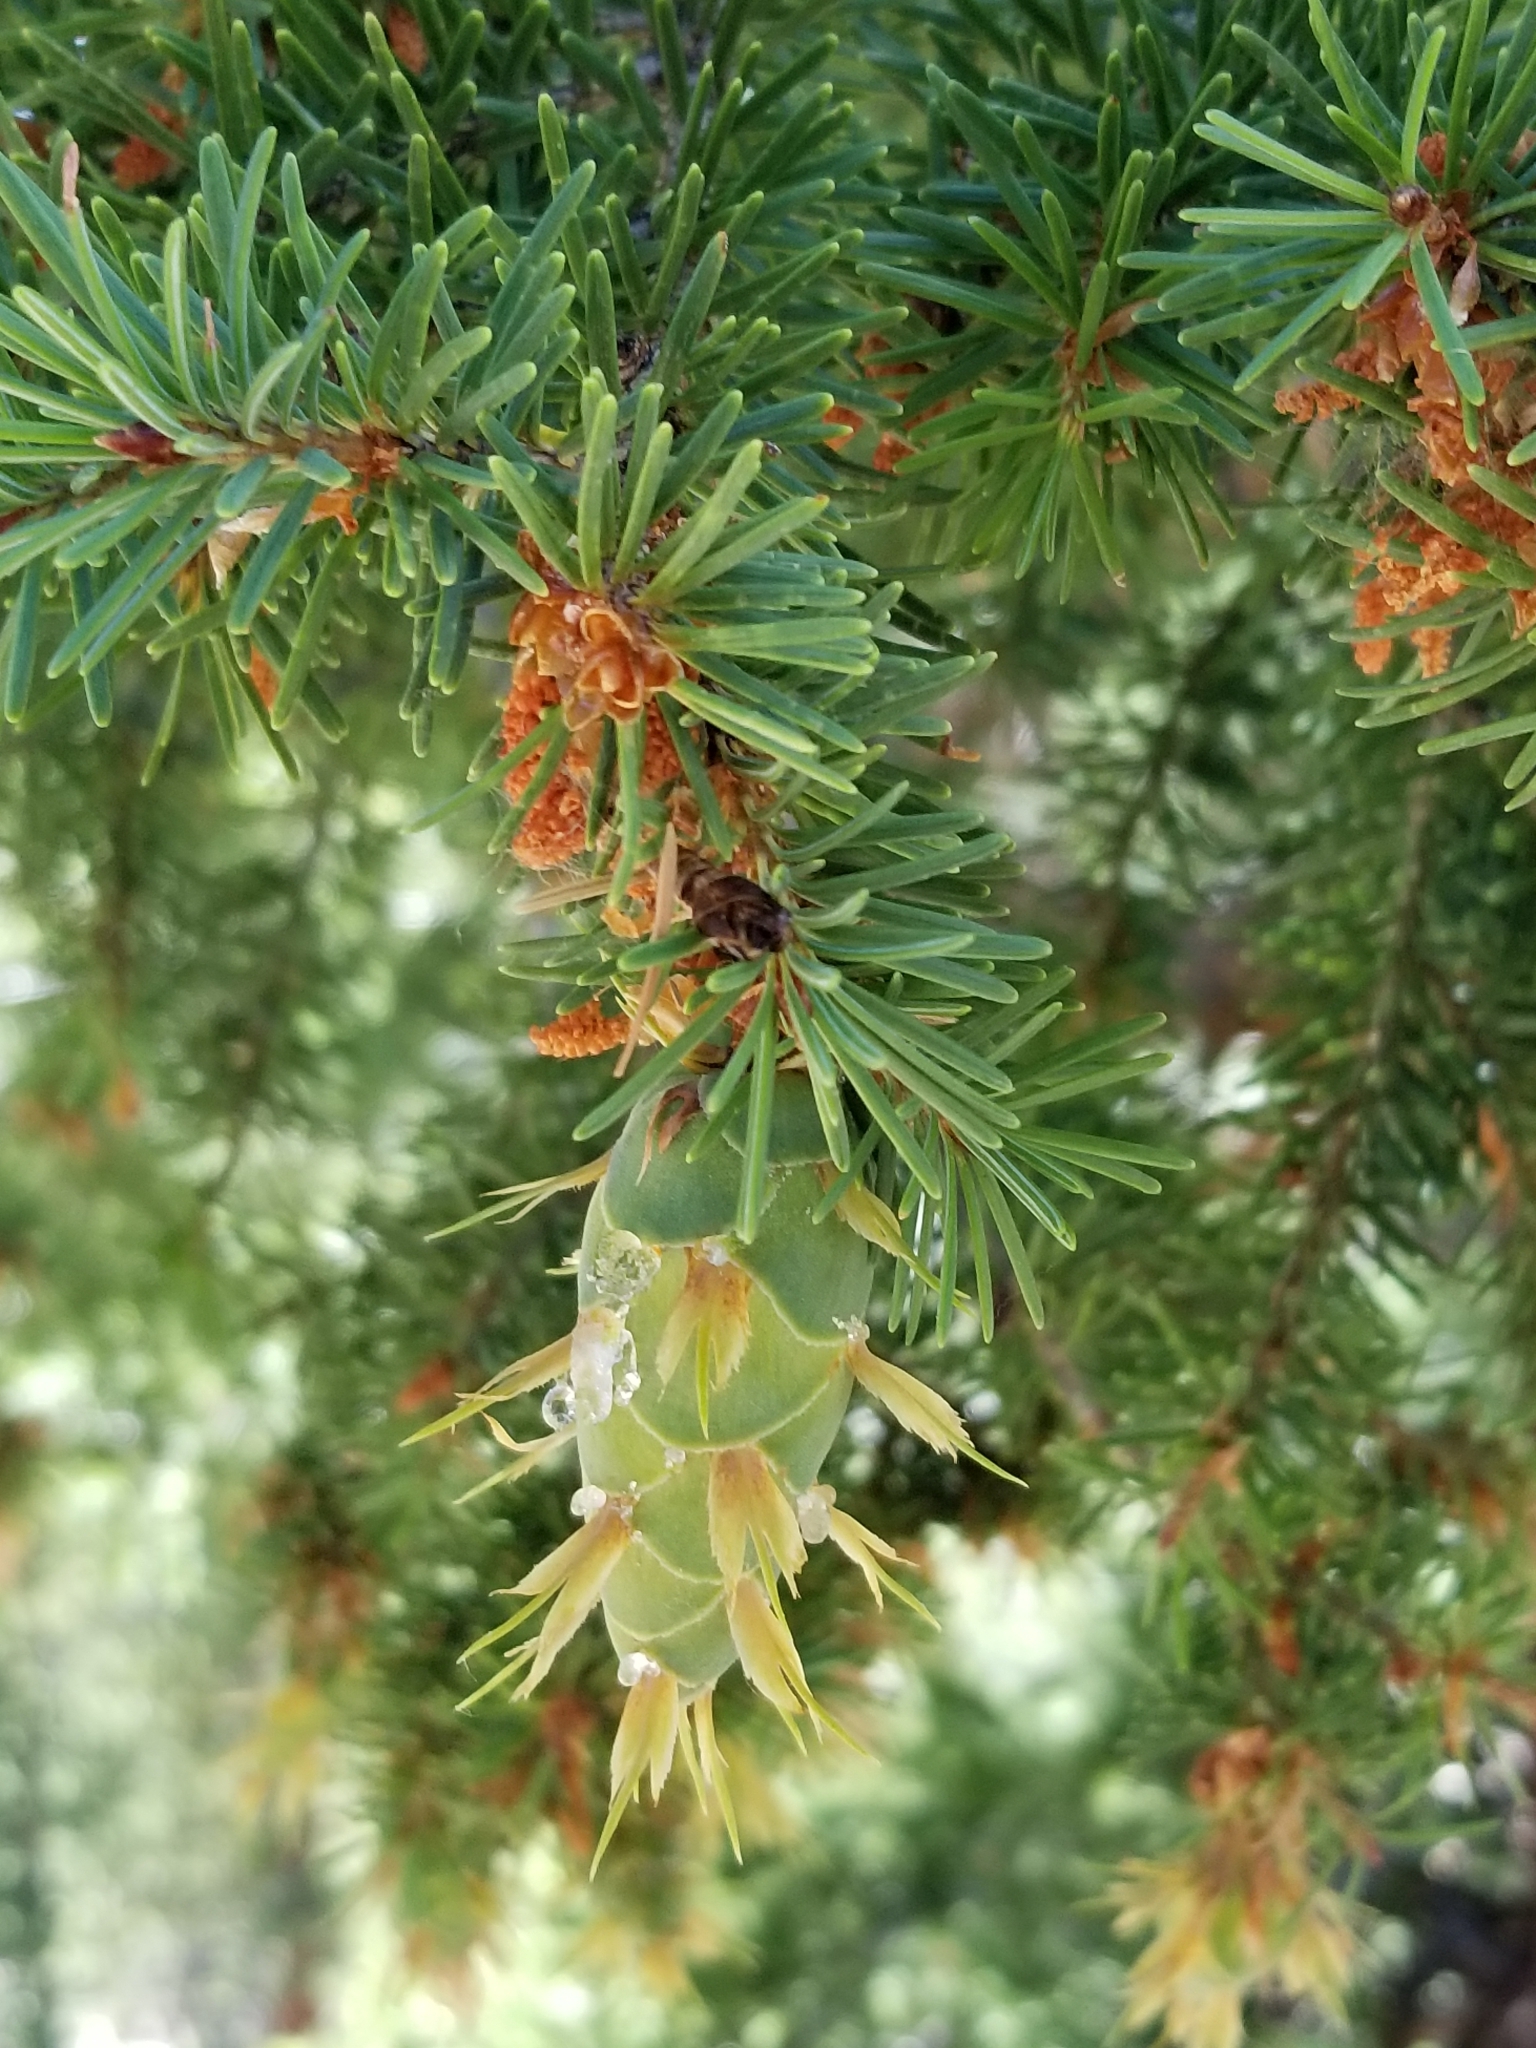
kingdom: Plantae
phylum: Tracheophyta
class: Pinopsida
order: Pinales
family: Pinaceae
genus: Pseudotsuga
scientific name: Pseudotsuga menziesii
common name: Douglas fir
